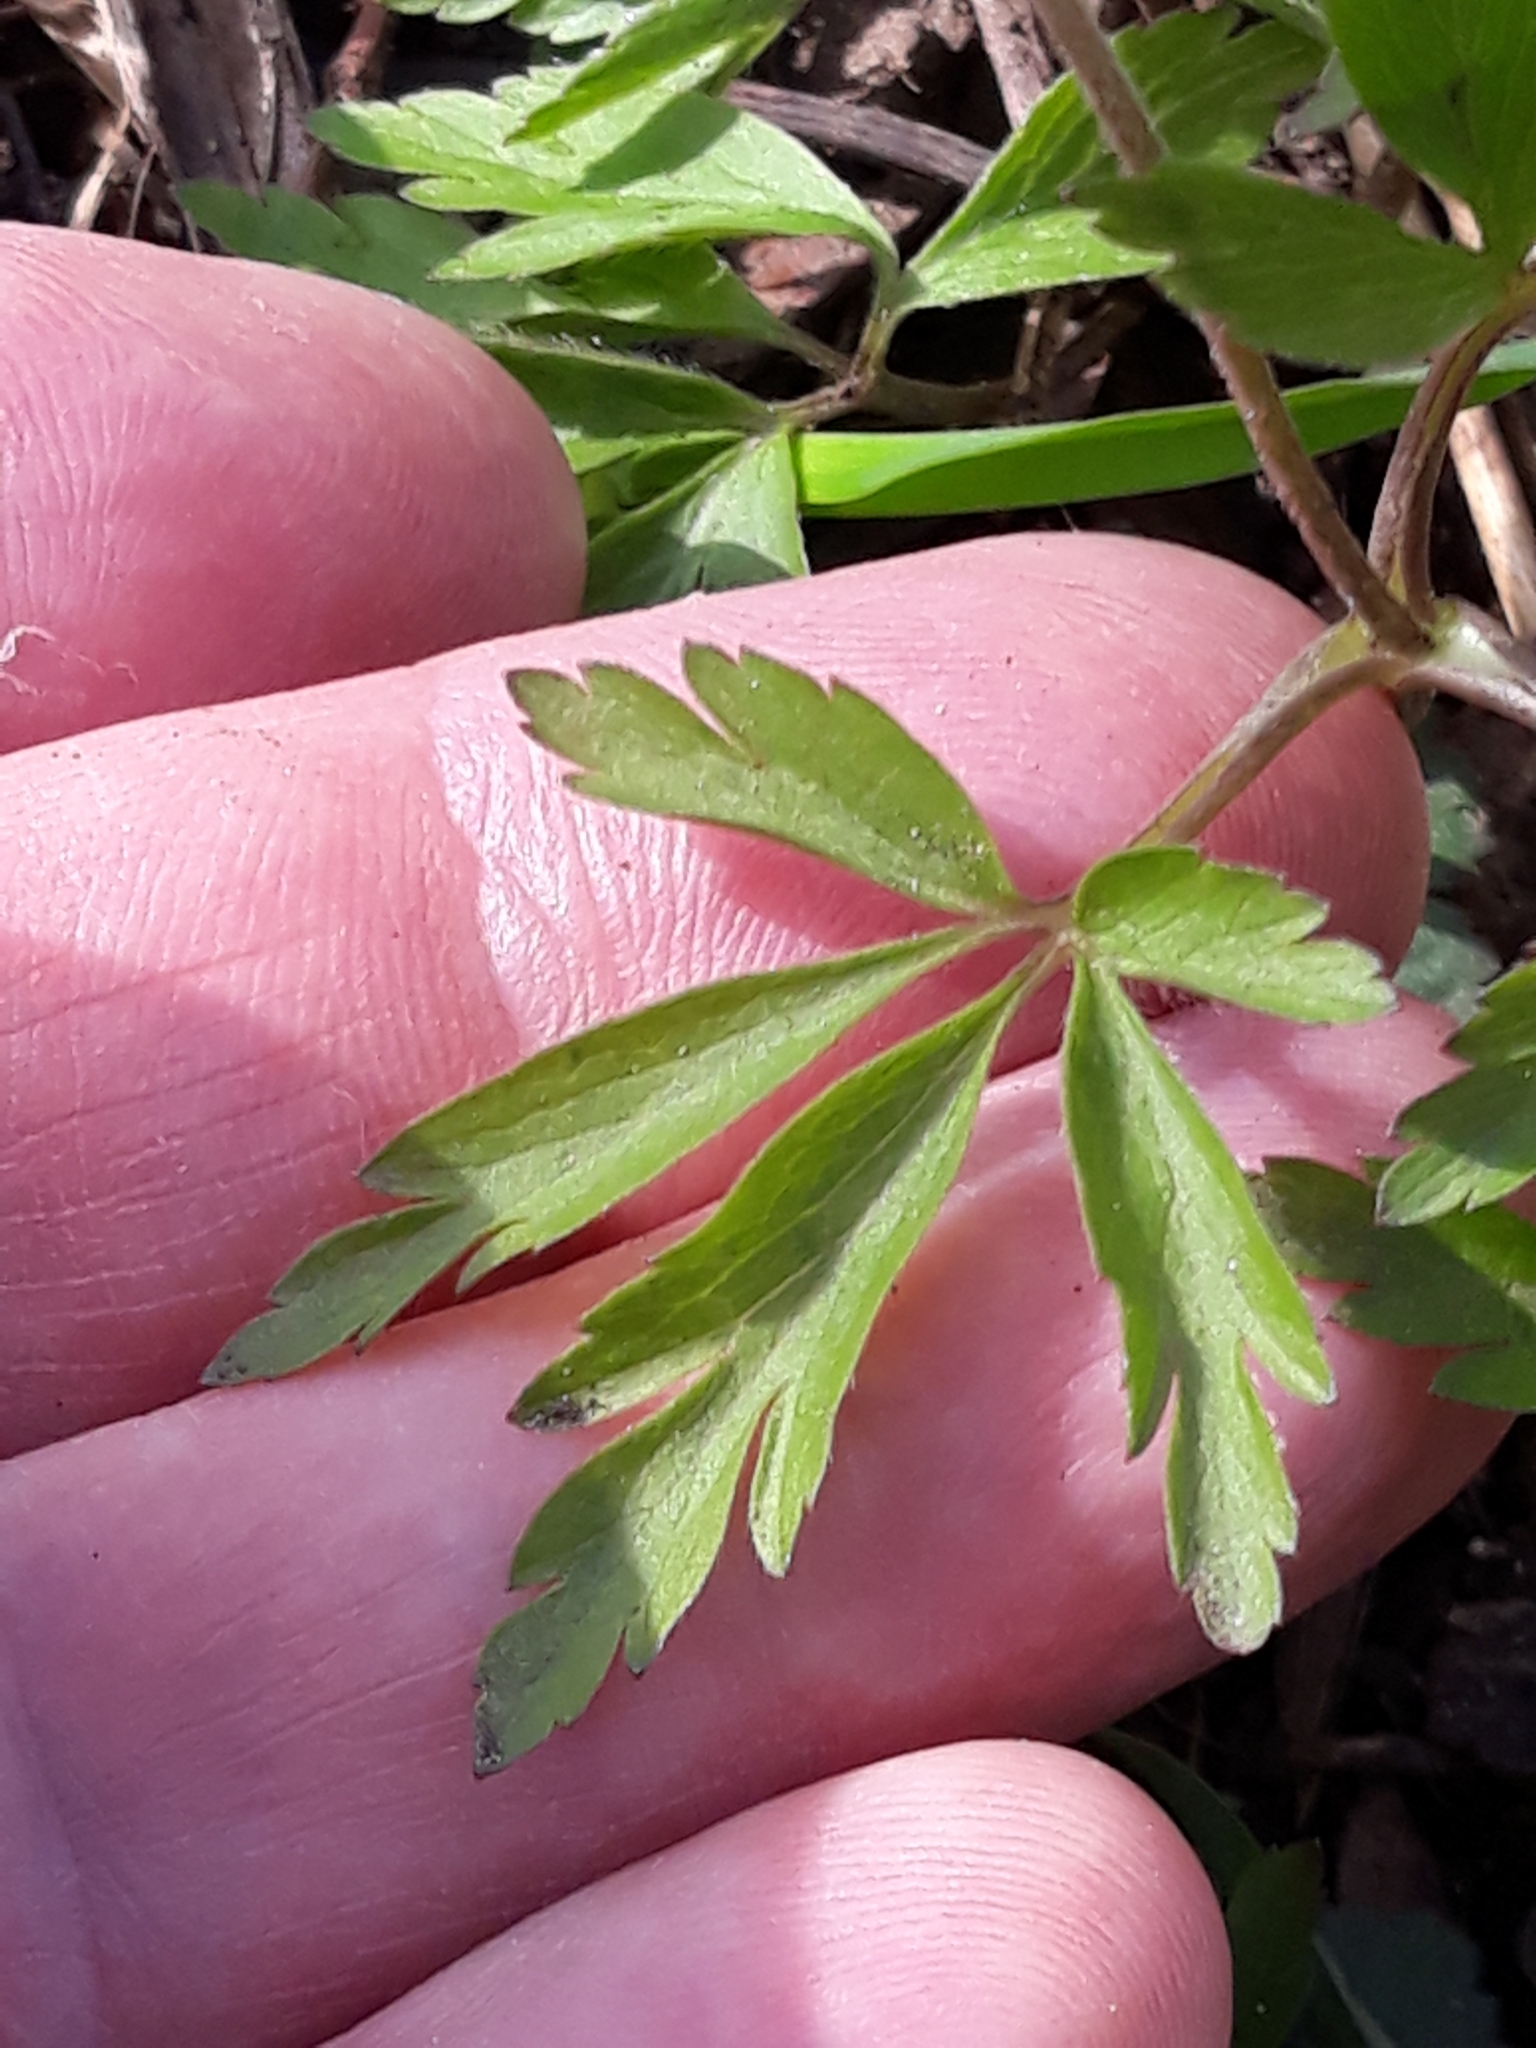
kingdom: Plantae
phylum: Tracheophyta
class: Magnoliopsida
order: Ranunculales
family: Ranunculaceae
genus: Anemone
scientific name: Anemone nemorosa
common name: Wood anemone
